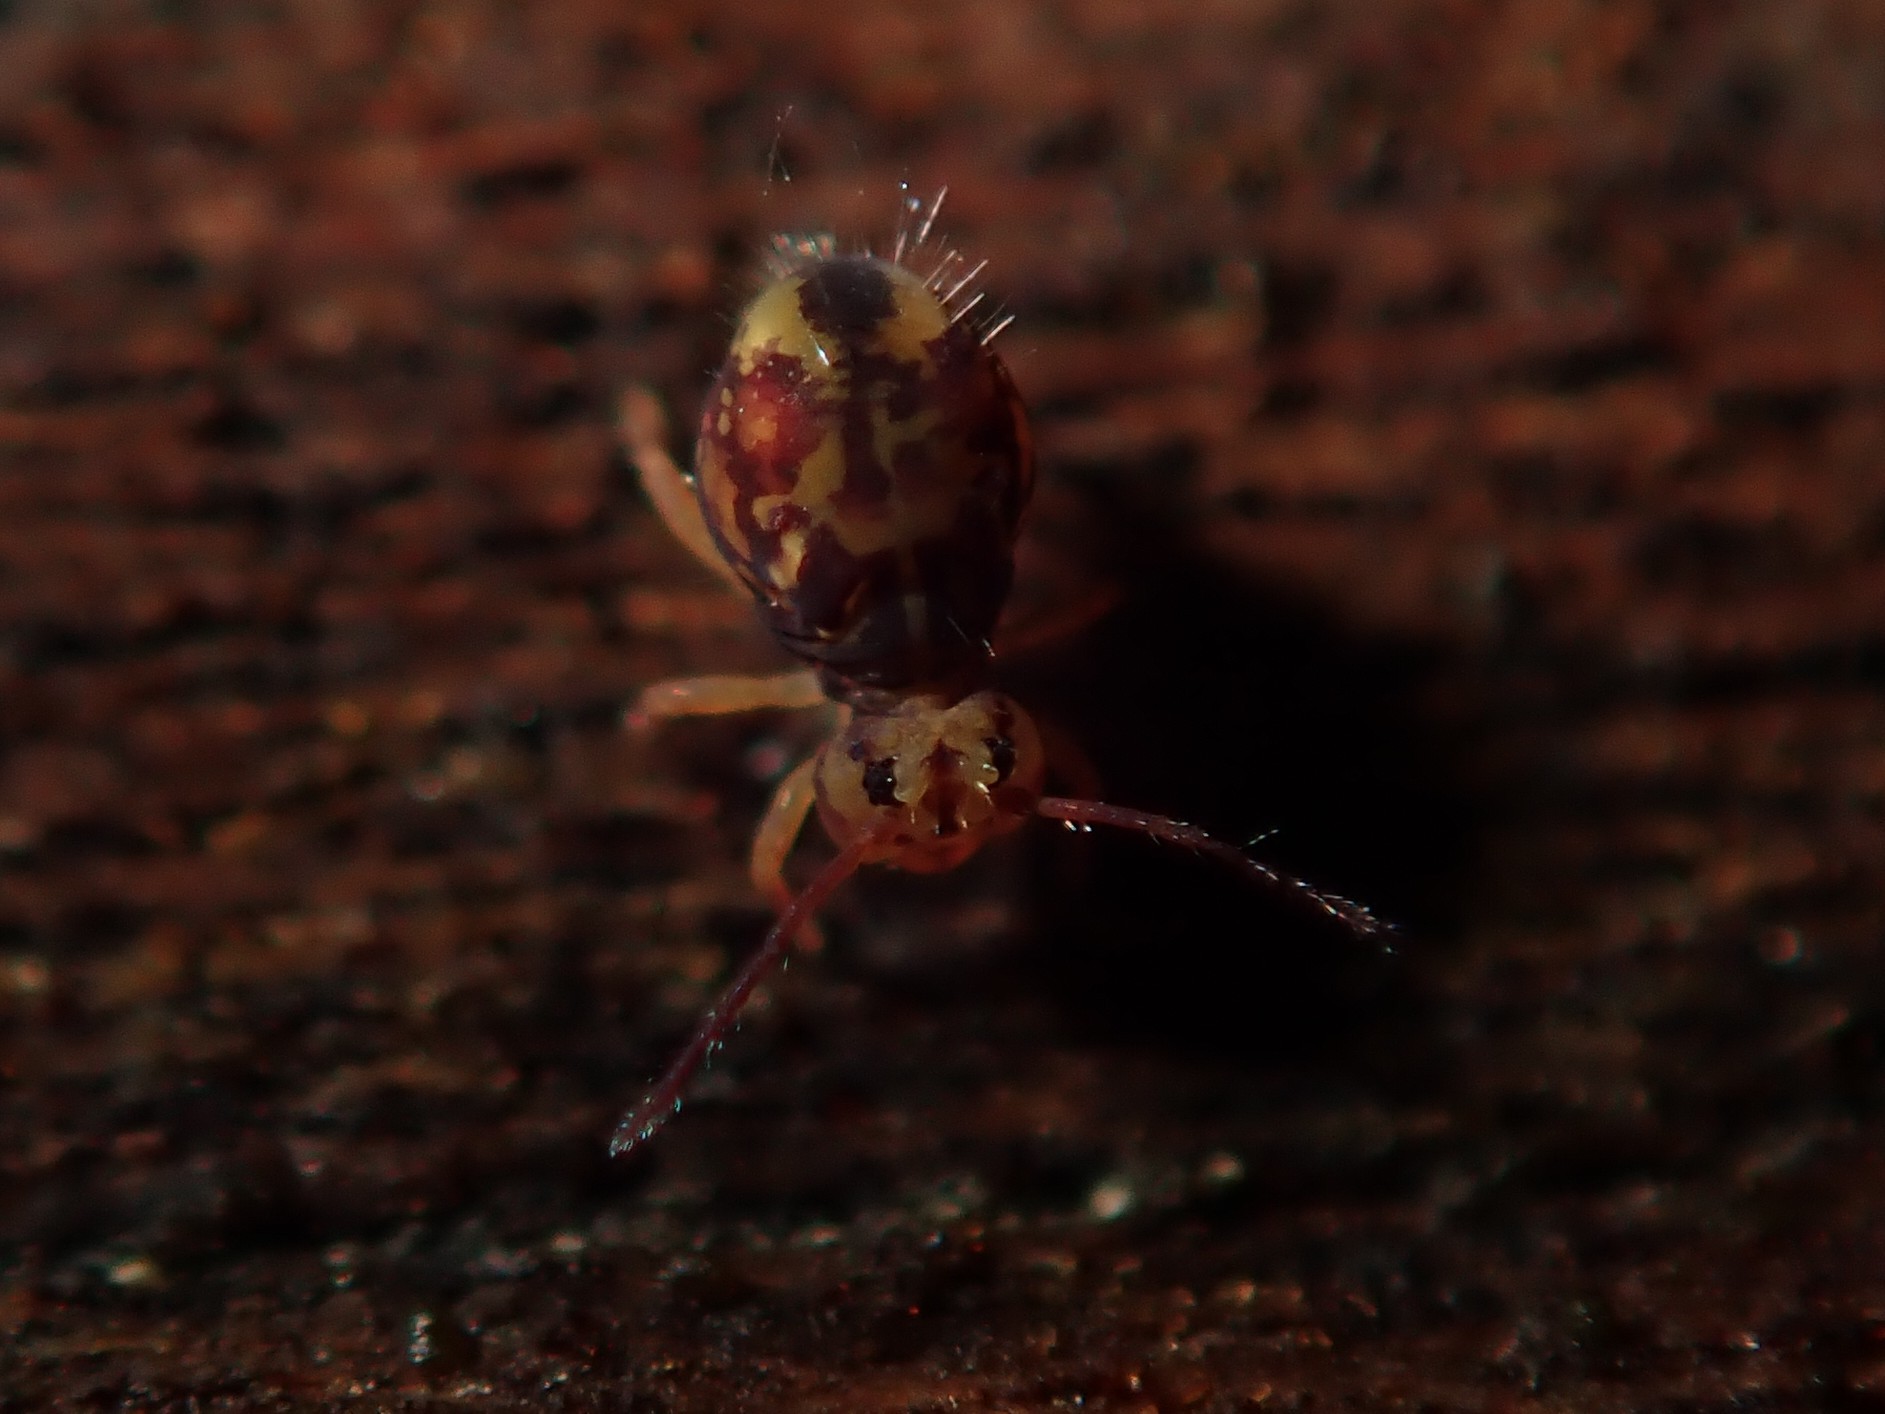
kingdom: Animalia
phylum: Arthropoda
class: Collembola
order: Symphypleona
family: Dicyrtomidae
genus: Dicyrtomina
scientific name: Dicyrtomina ornata
